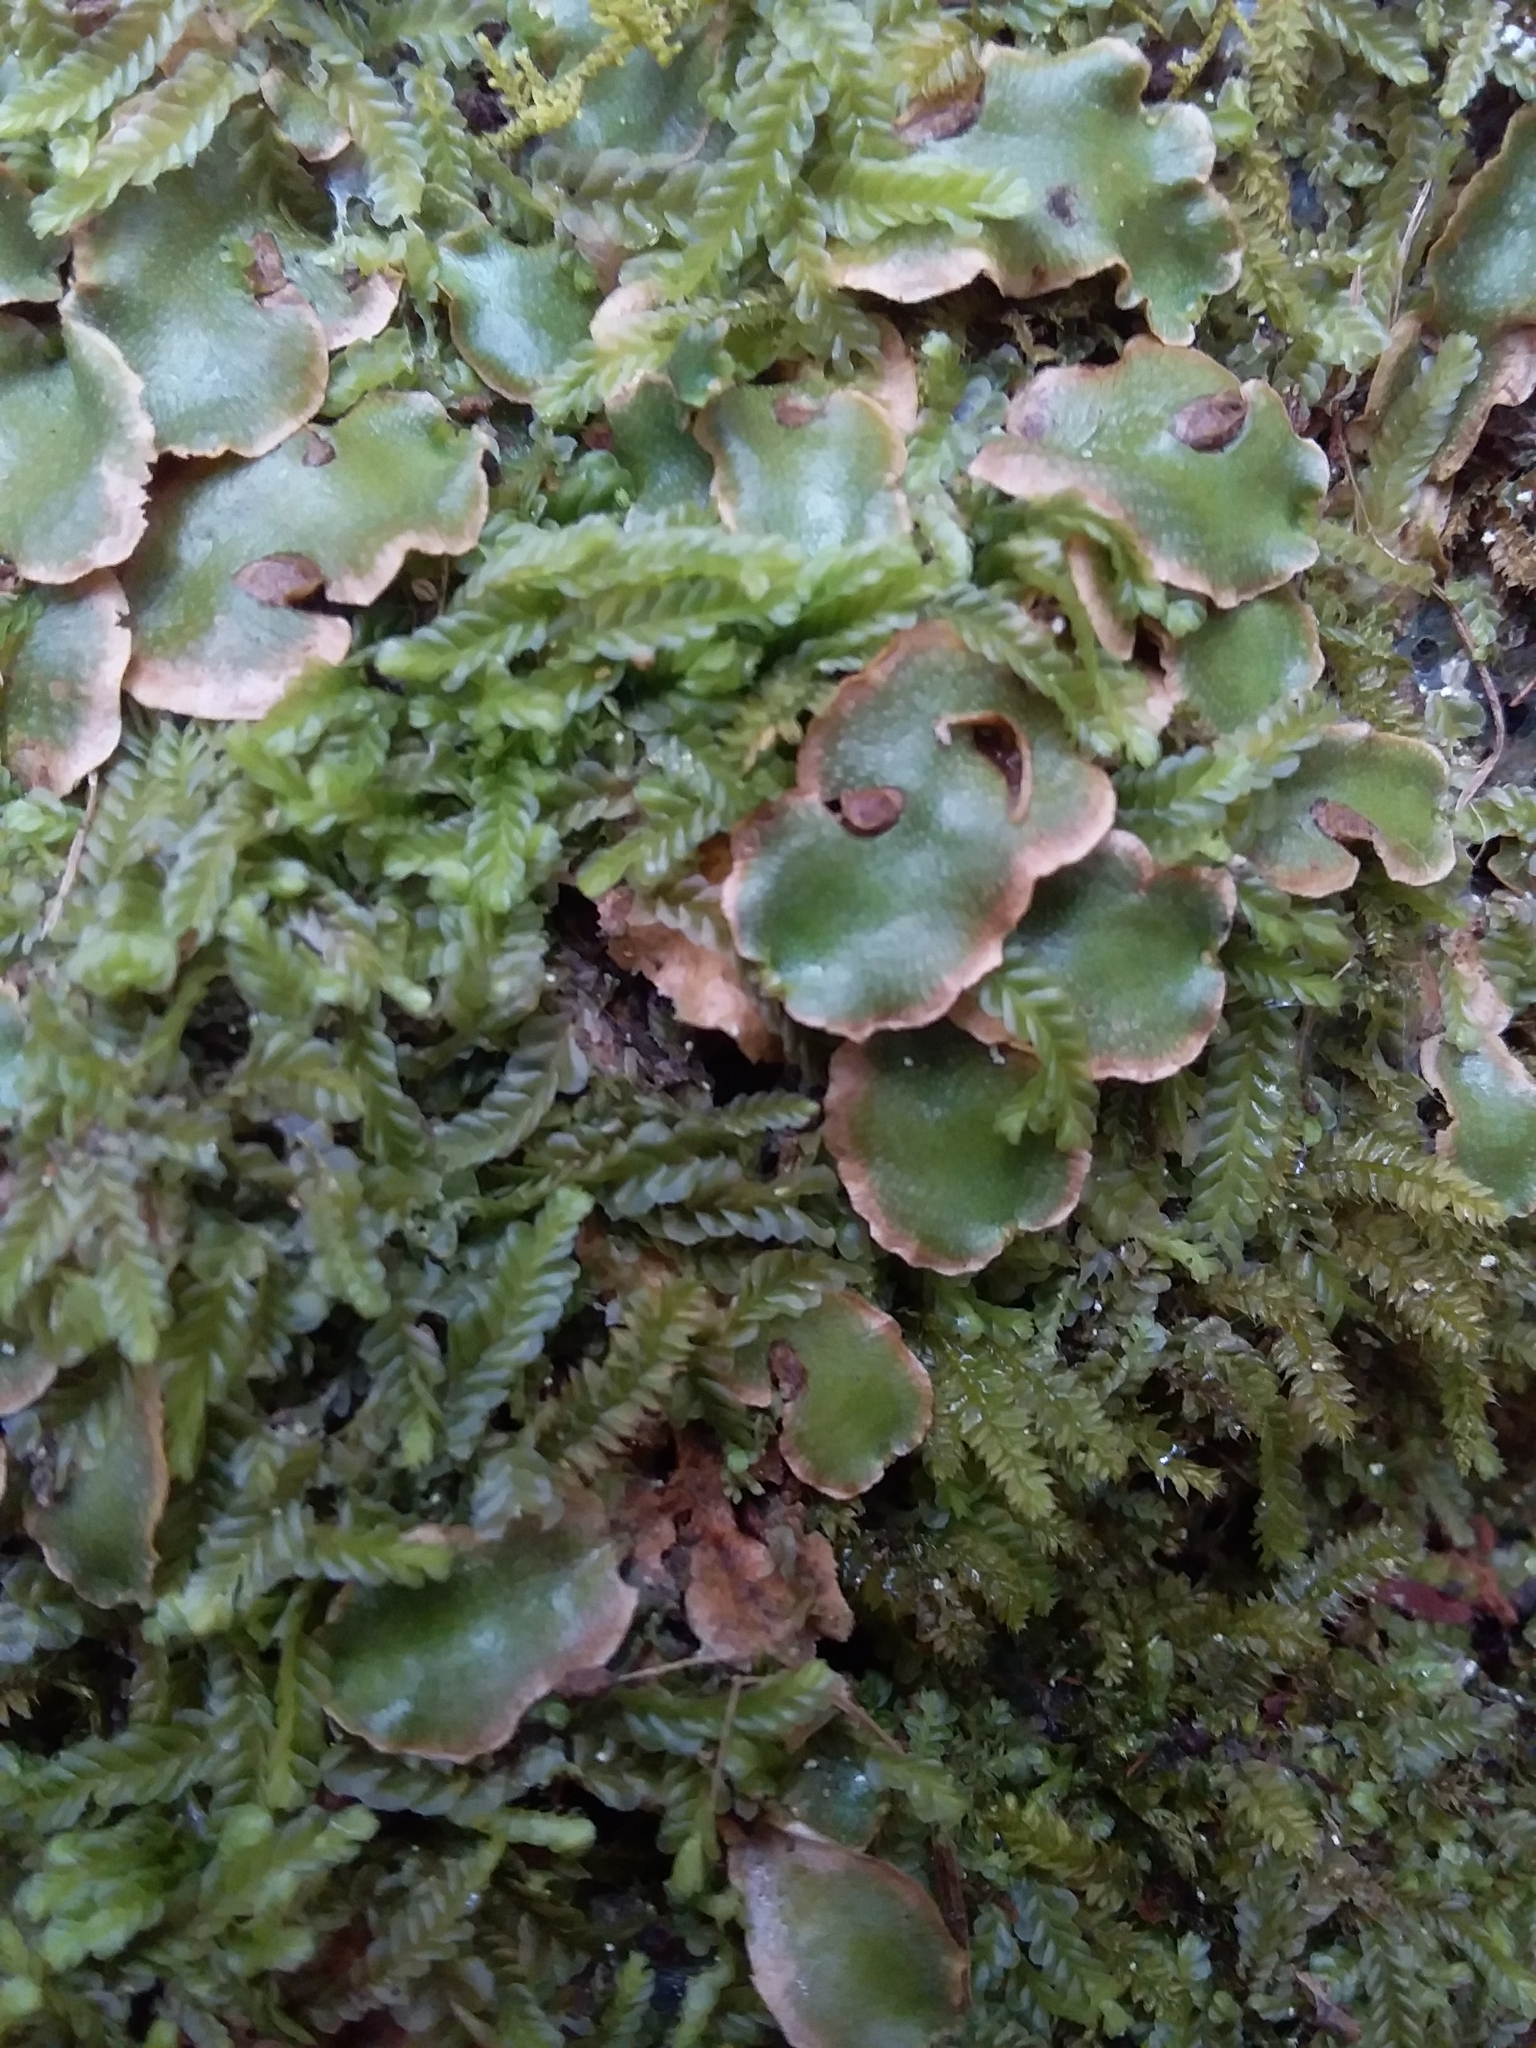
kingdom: Plantae
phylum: Marchantiophyta
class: Marchantiopsida
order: Lunulariales
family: Lunulariaceae
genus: Lunularia
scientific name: Lunularia cruciata
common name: Crescent-cup liverwort
